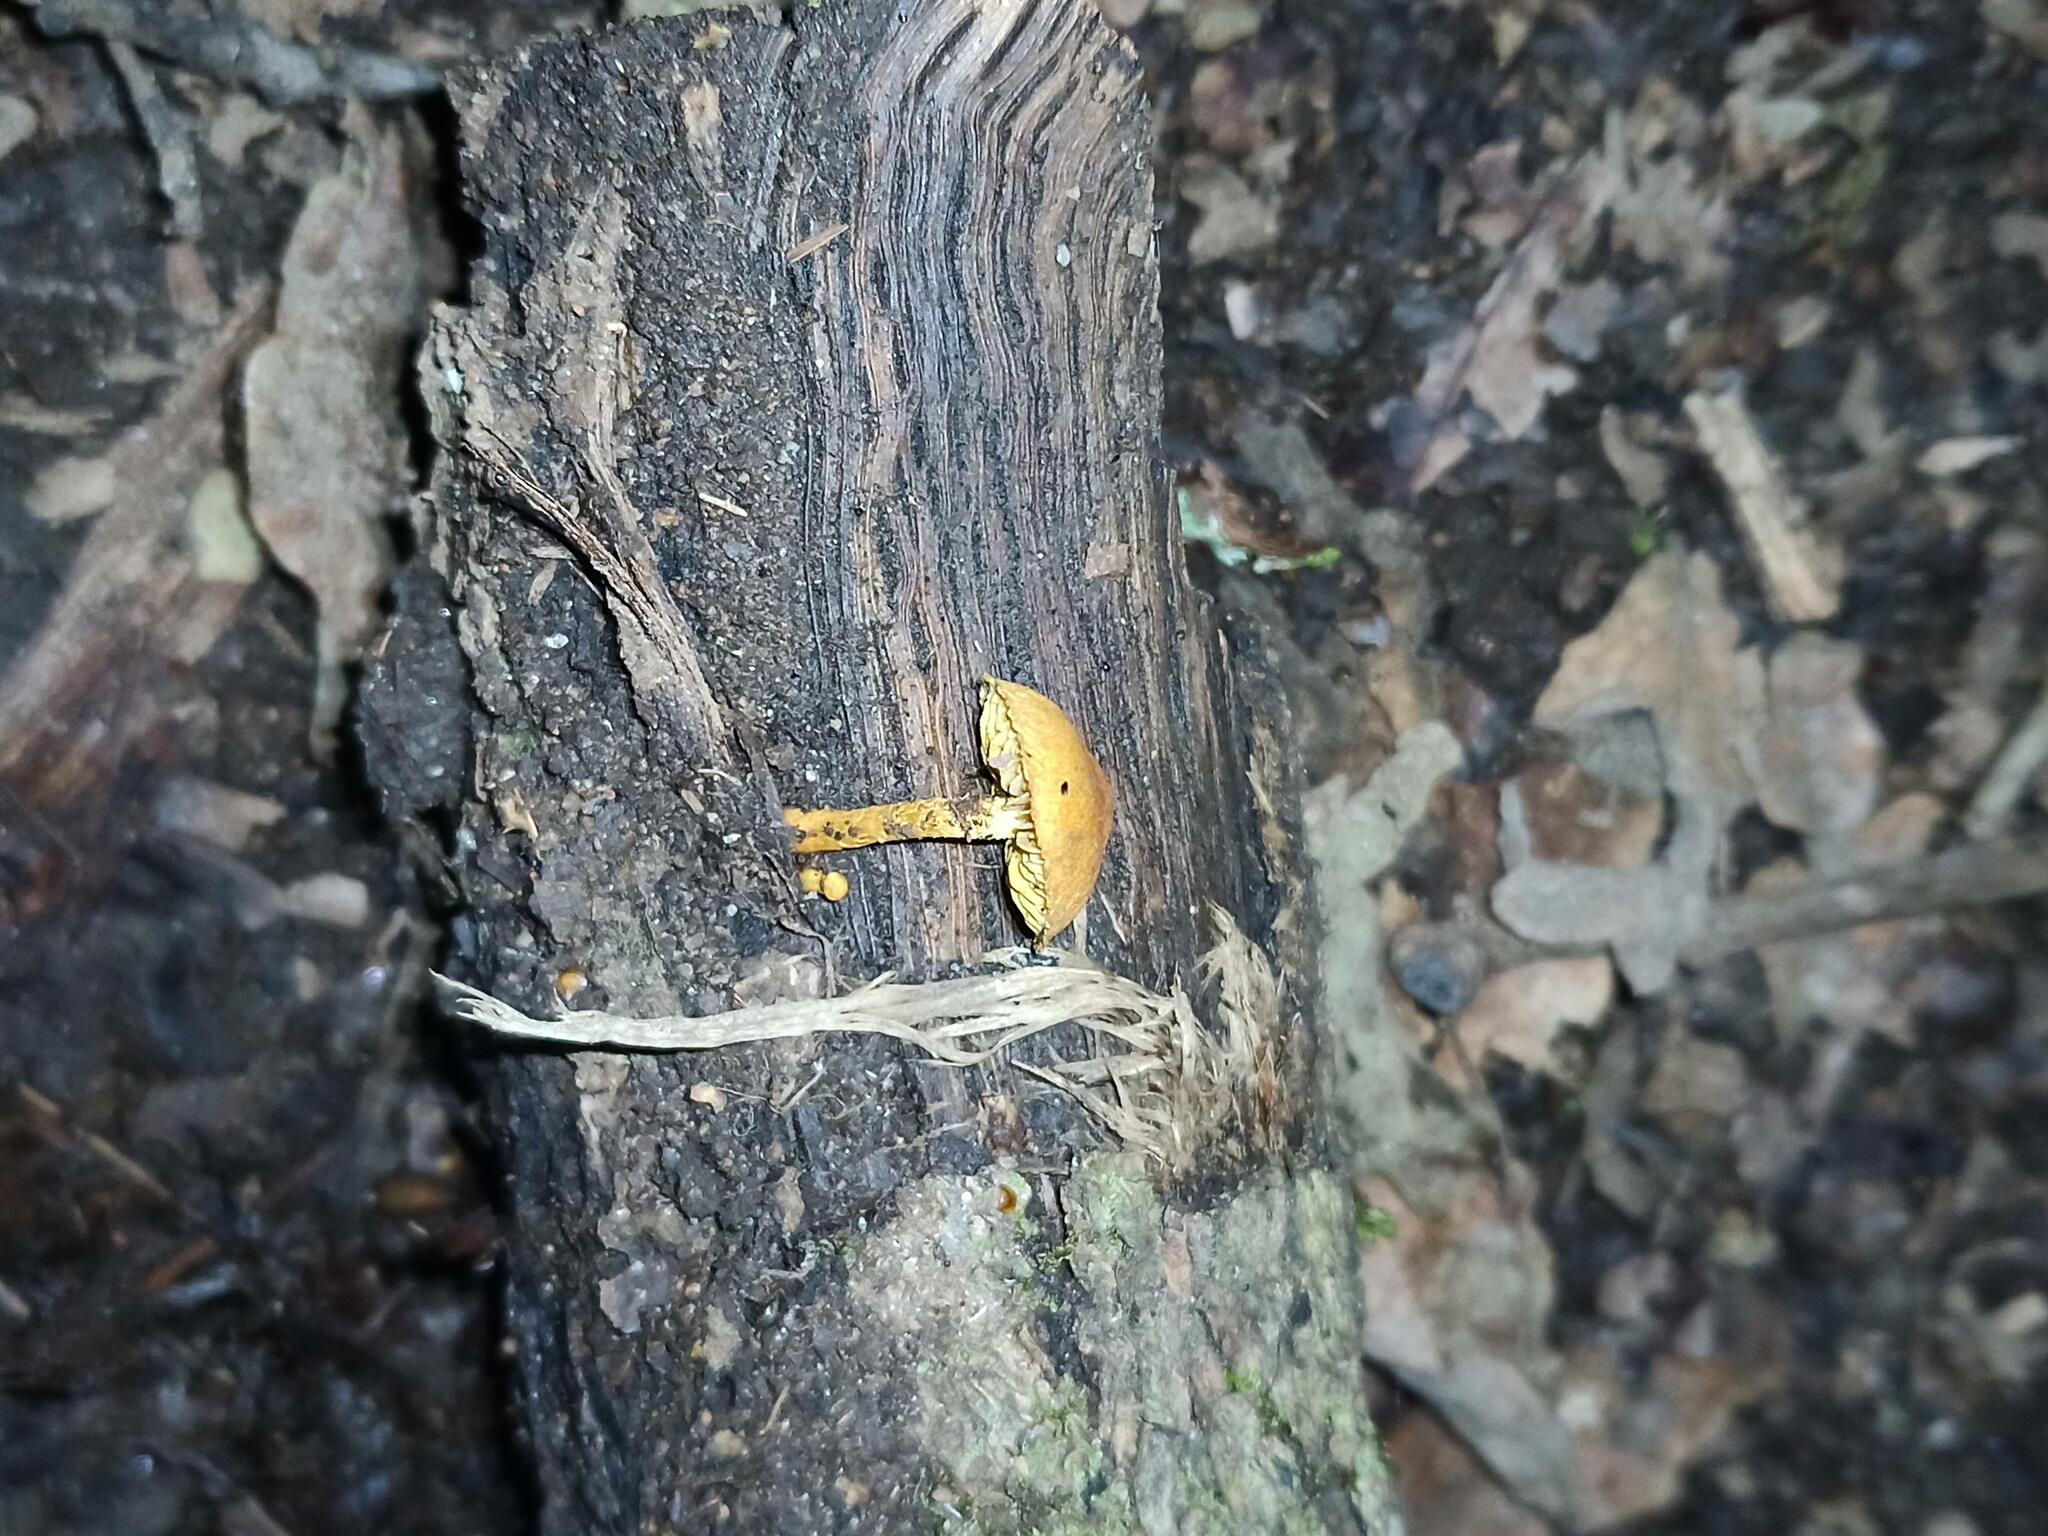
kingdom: Fungi
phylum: Basidiomycota
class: Agaricomycetes
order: Agaricales
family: Strophariaceae
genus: Pholiota
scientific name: Pholiota tuberculosa
